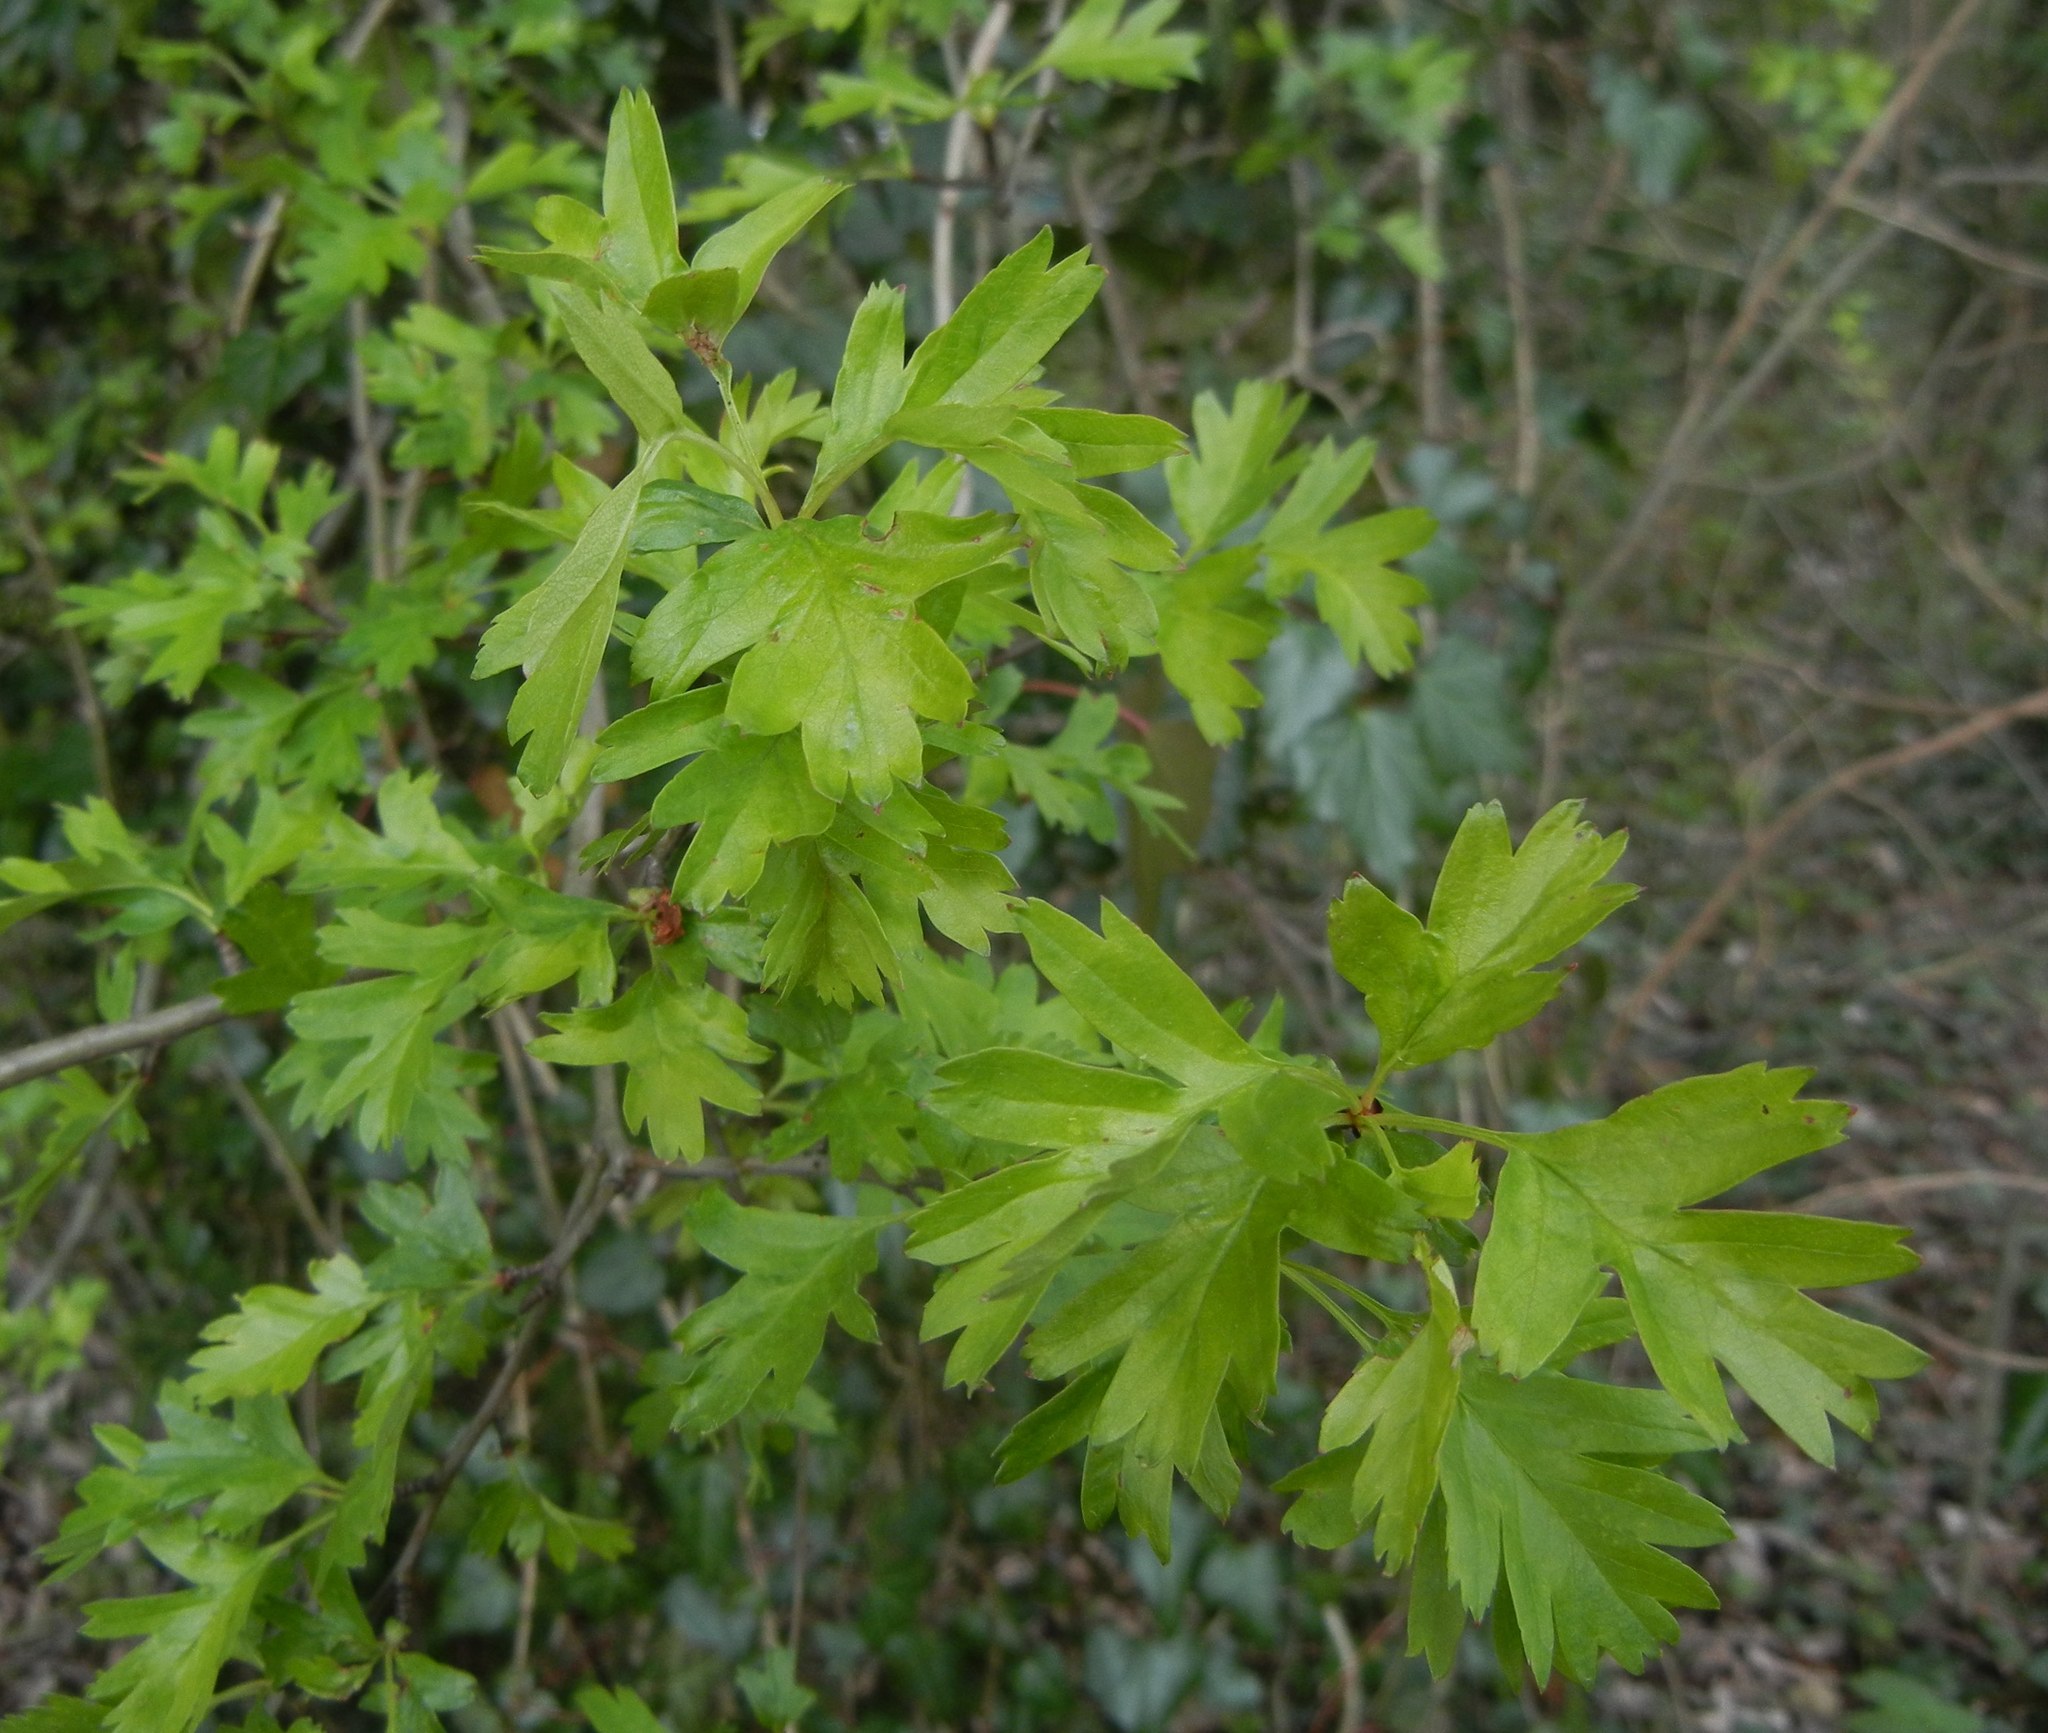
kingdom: Plantae
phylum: Tracheophyta
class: Magnoliopsida
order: Rosales
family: Rosaceae
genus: Crataegus
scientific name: Crataegus monogyna
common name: Hawthorn
